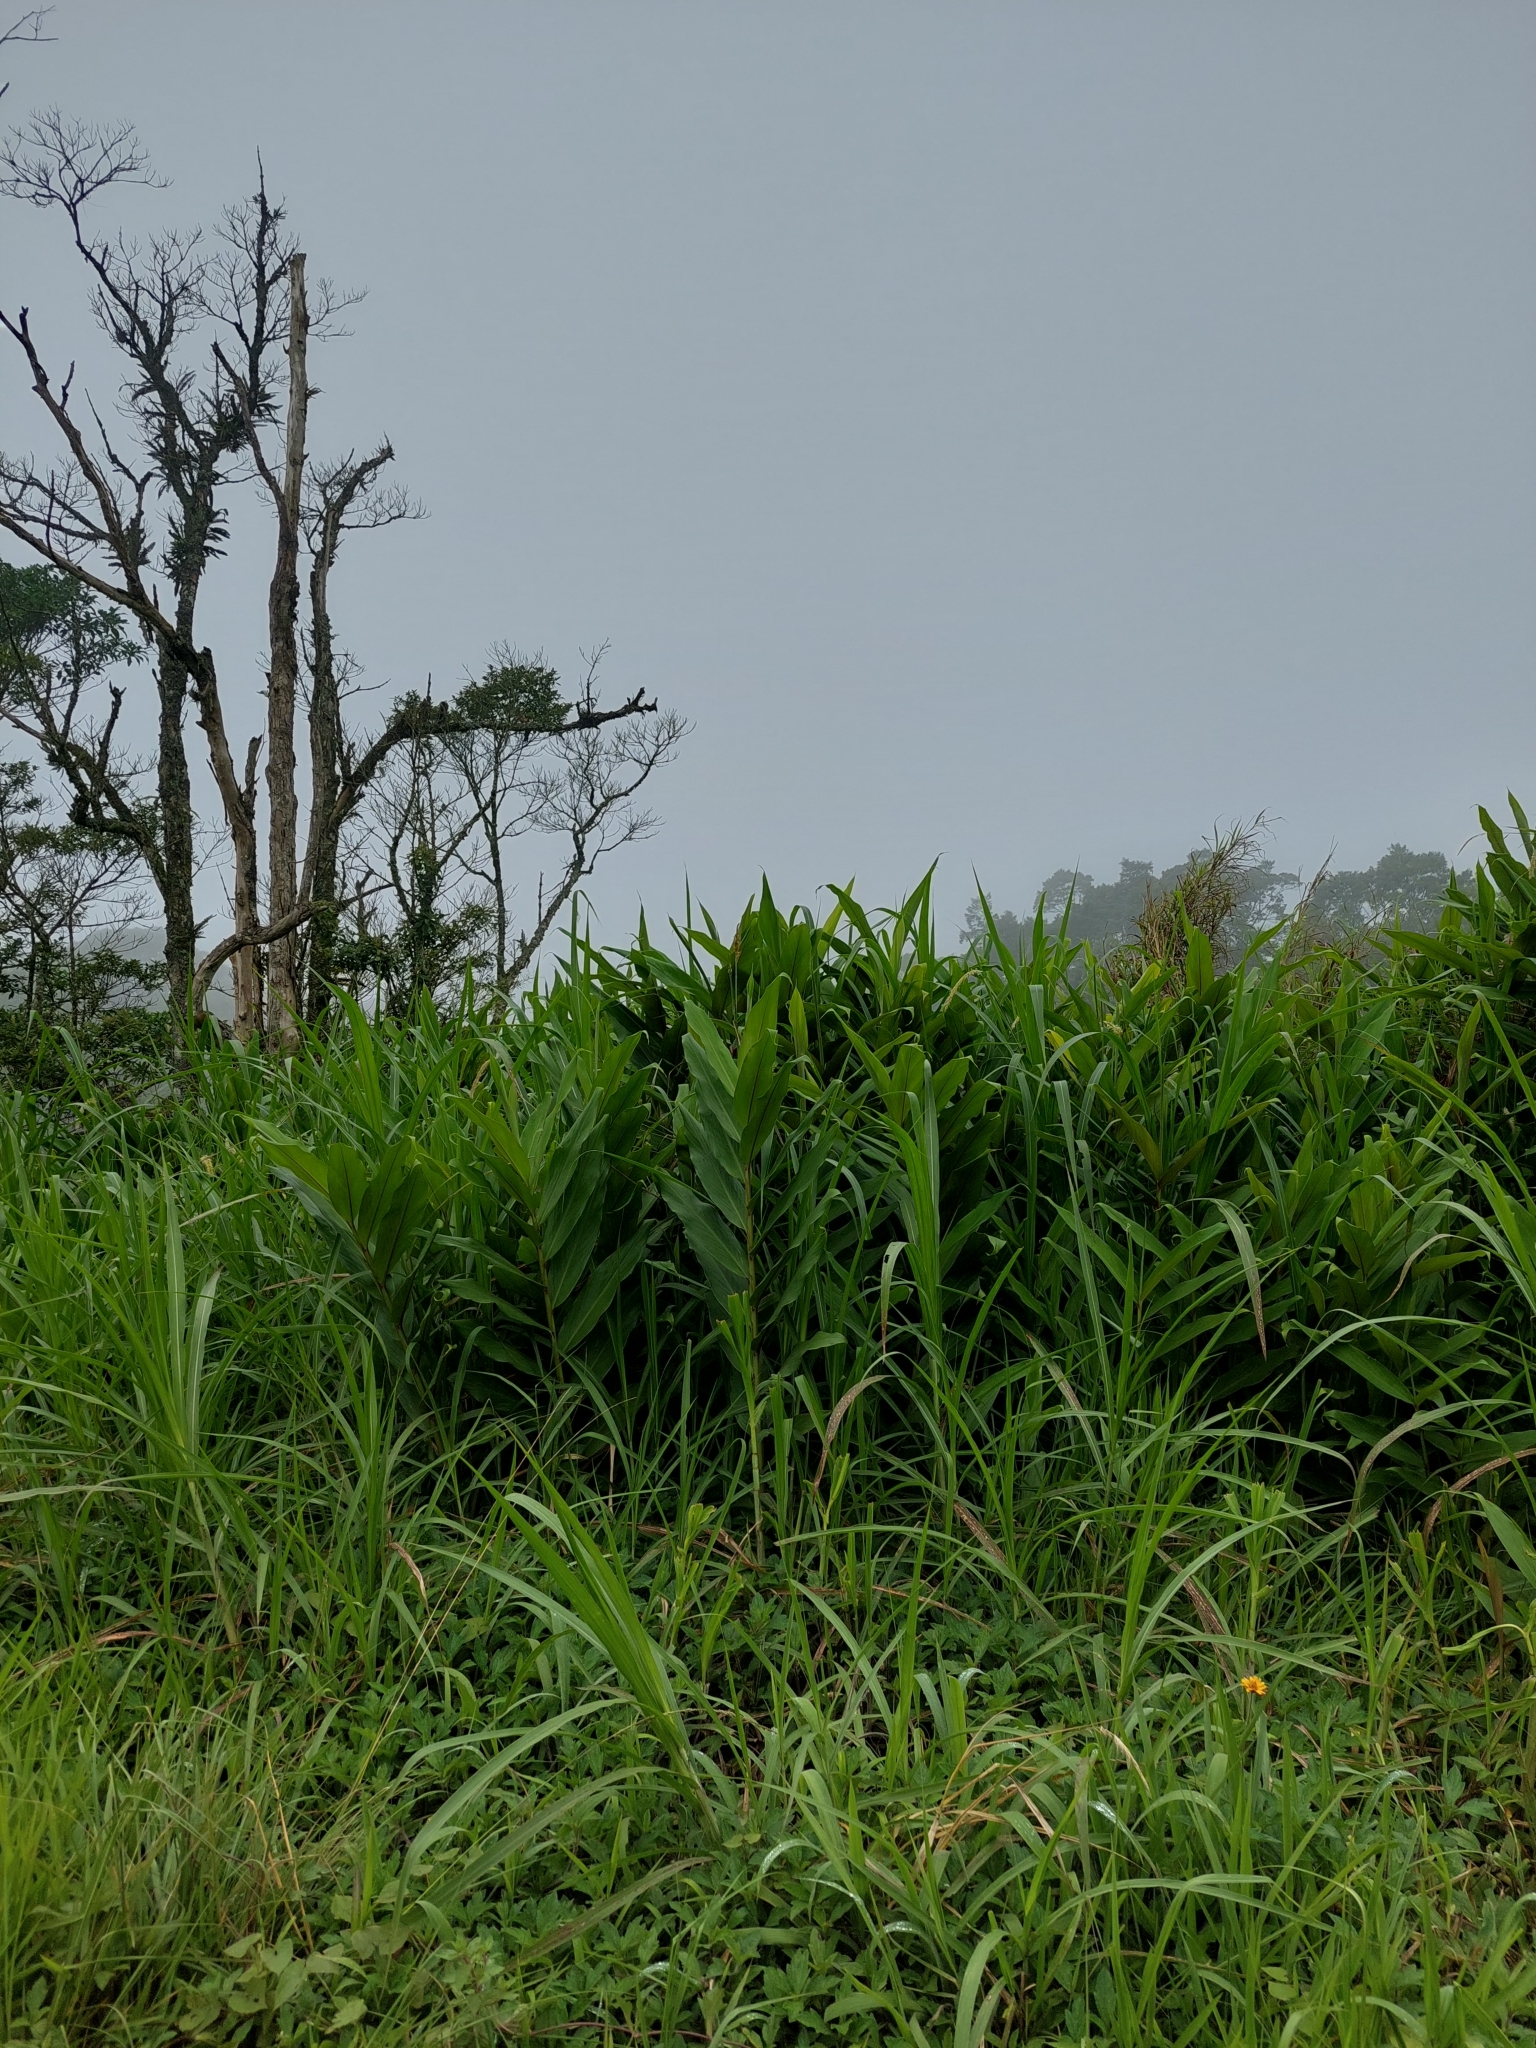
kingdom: Plantae
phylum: Tracheophyta
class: Liliopsida
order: Zingiberales
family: Zingiberaceae
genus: Hedychium
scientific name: Hedychium coronarium
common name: White garland-lily
